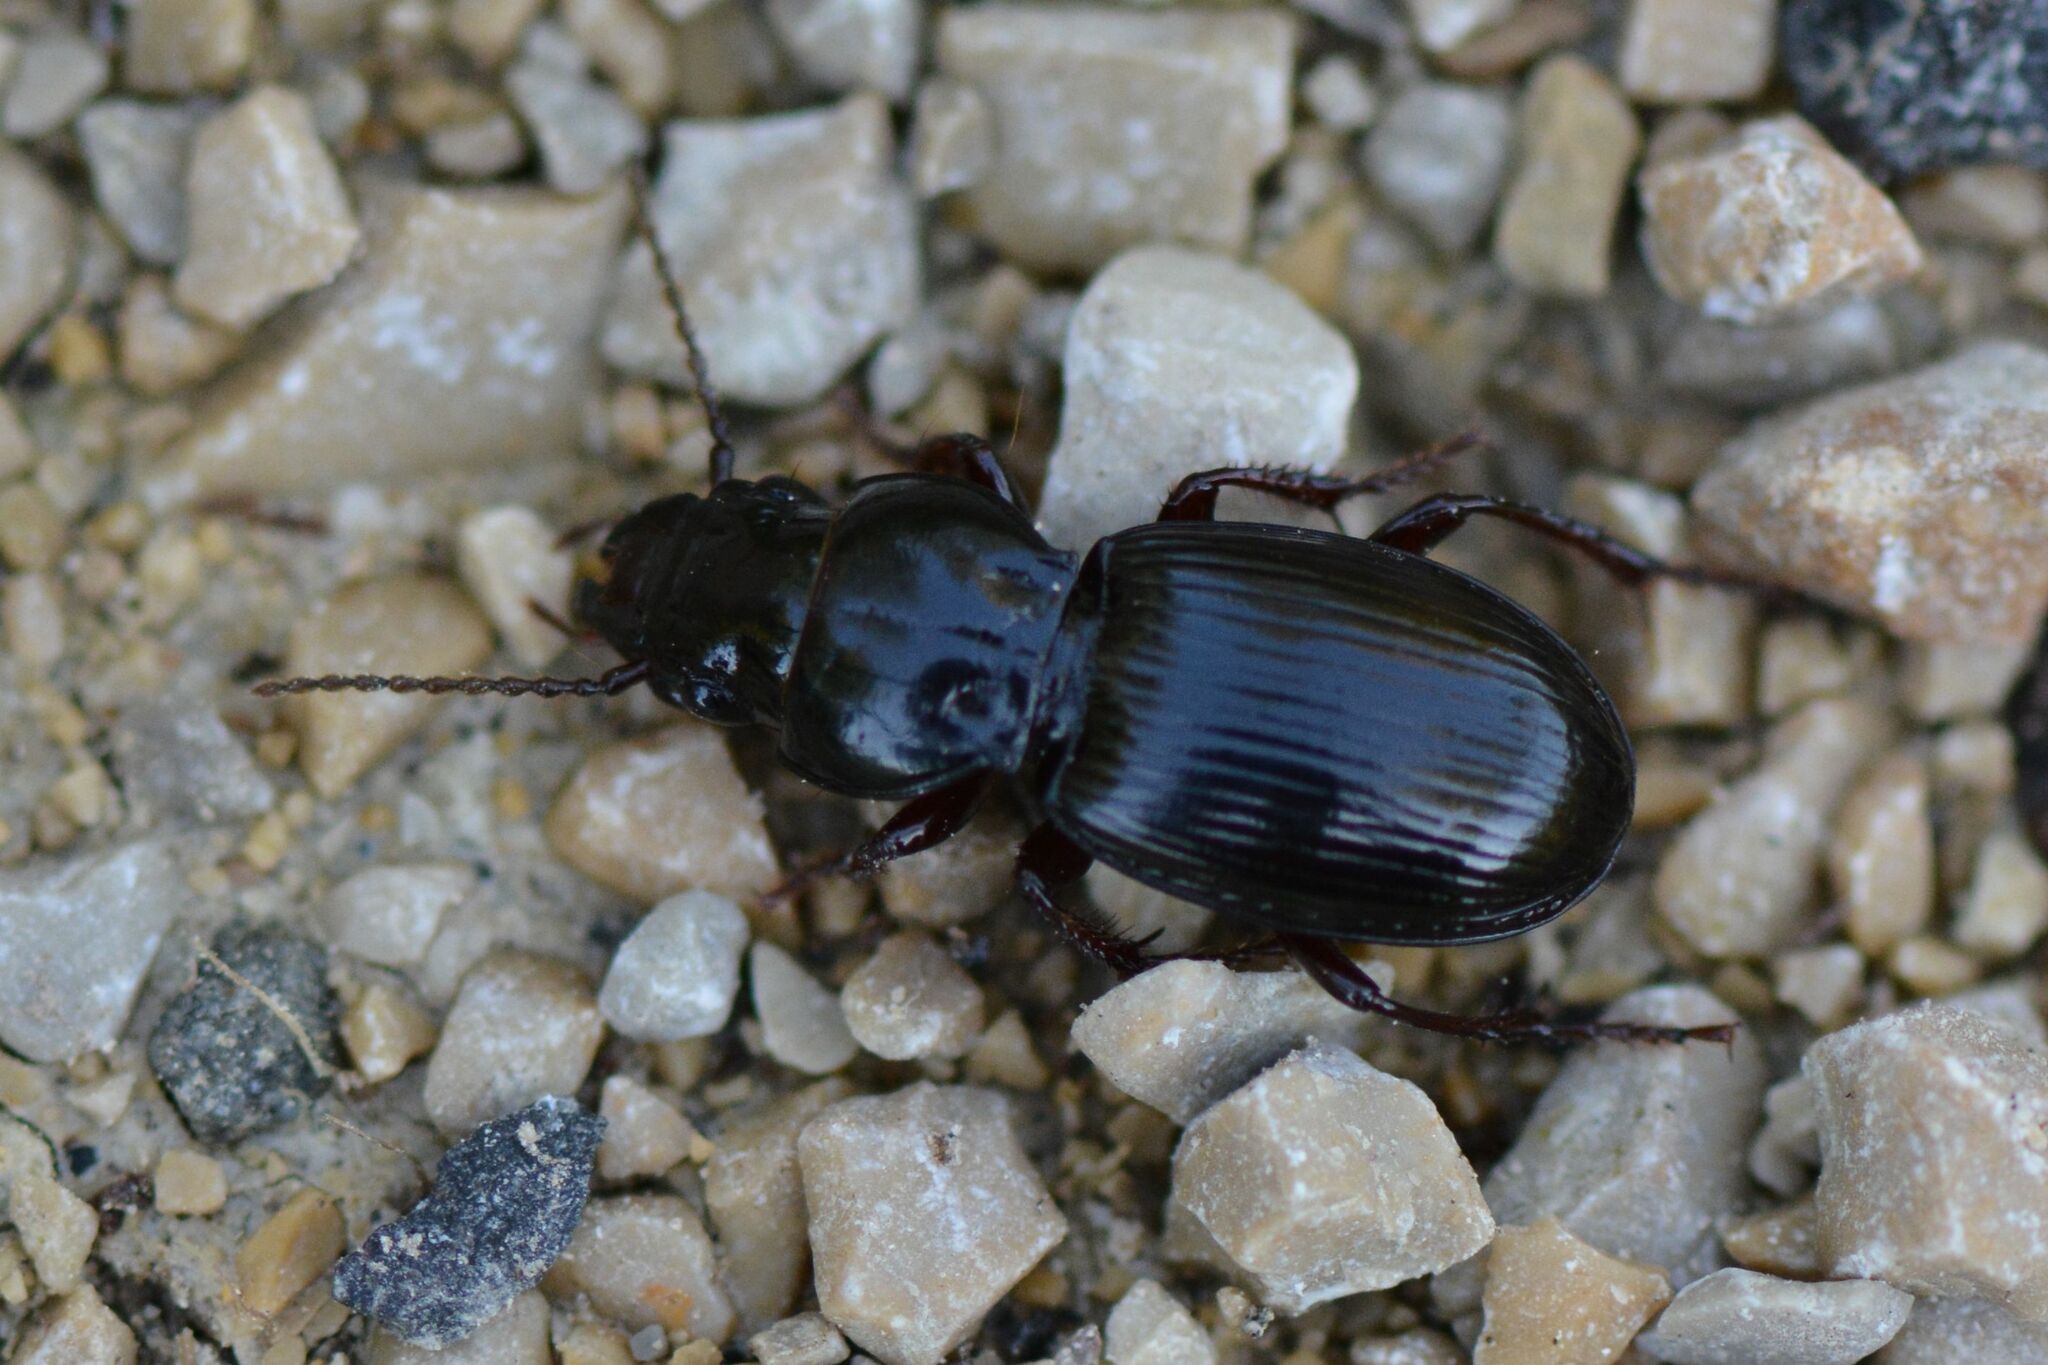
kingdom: Animalia
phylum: Arthropoda
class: Insecta
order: Coleoptera
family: Carabidae
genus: Molops
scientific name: Molops piceus
